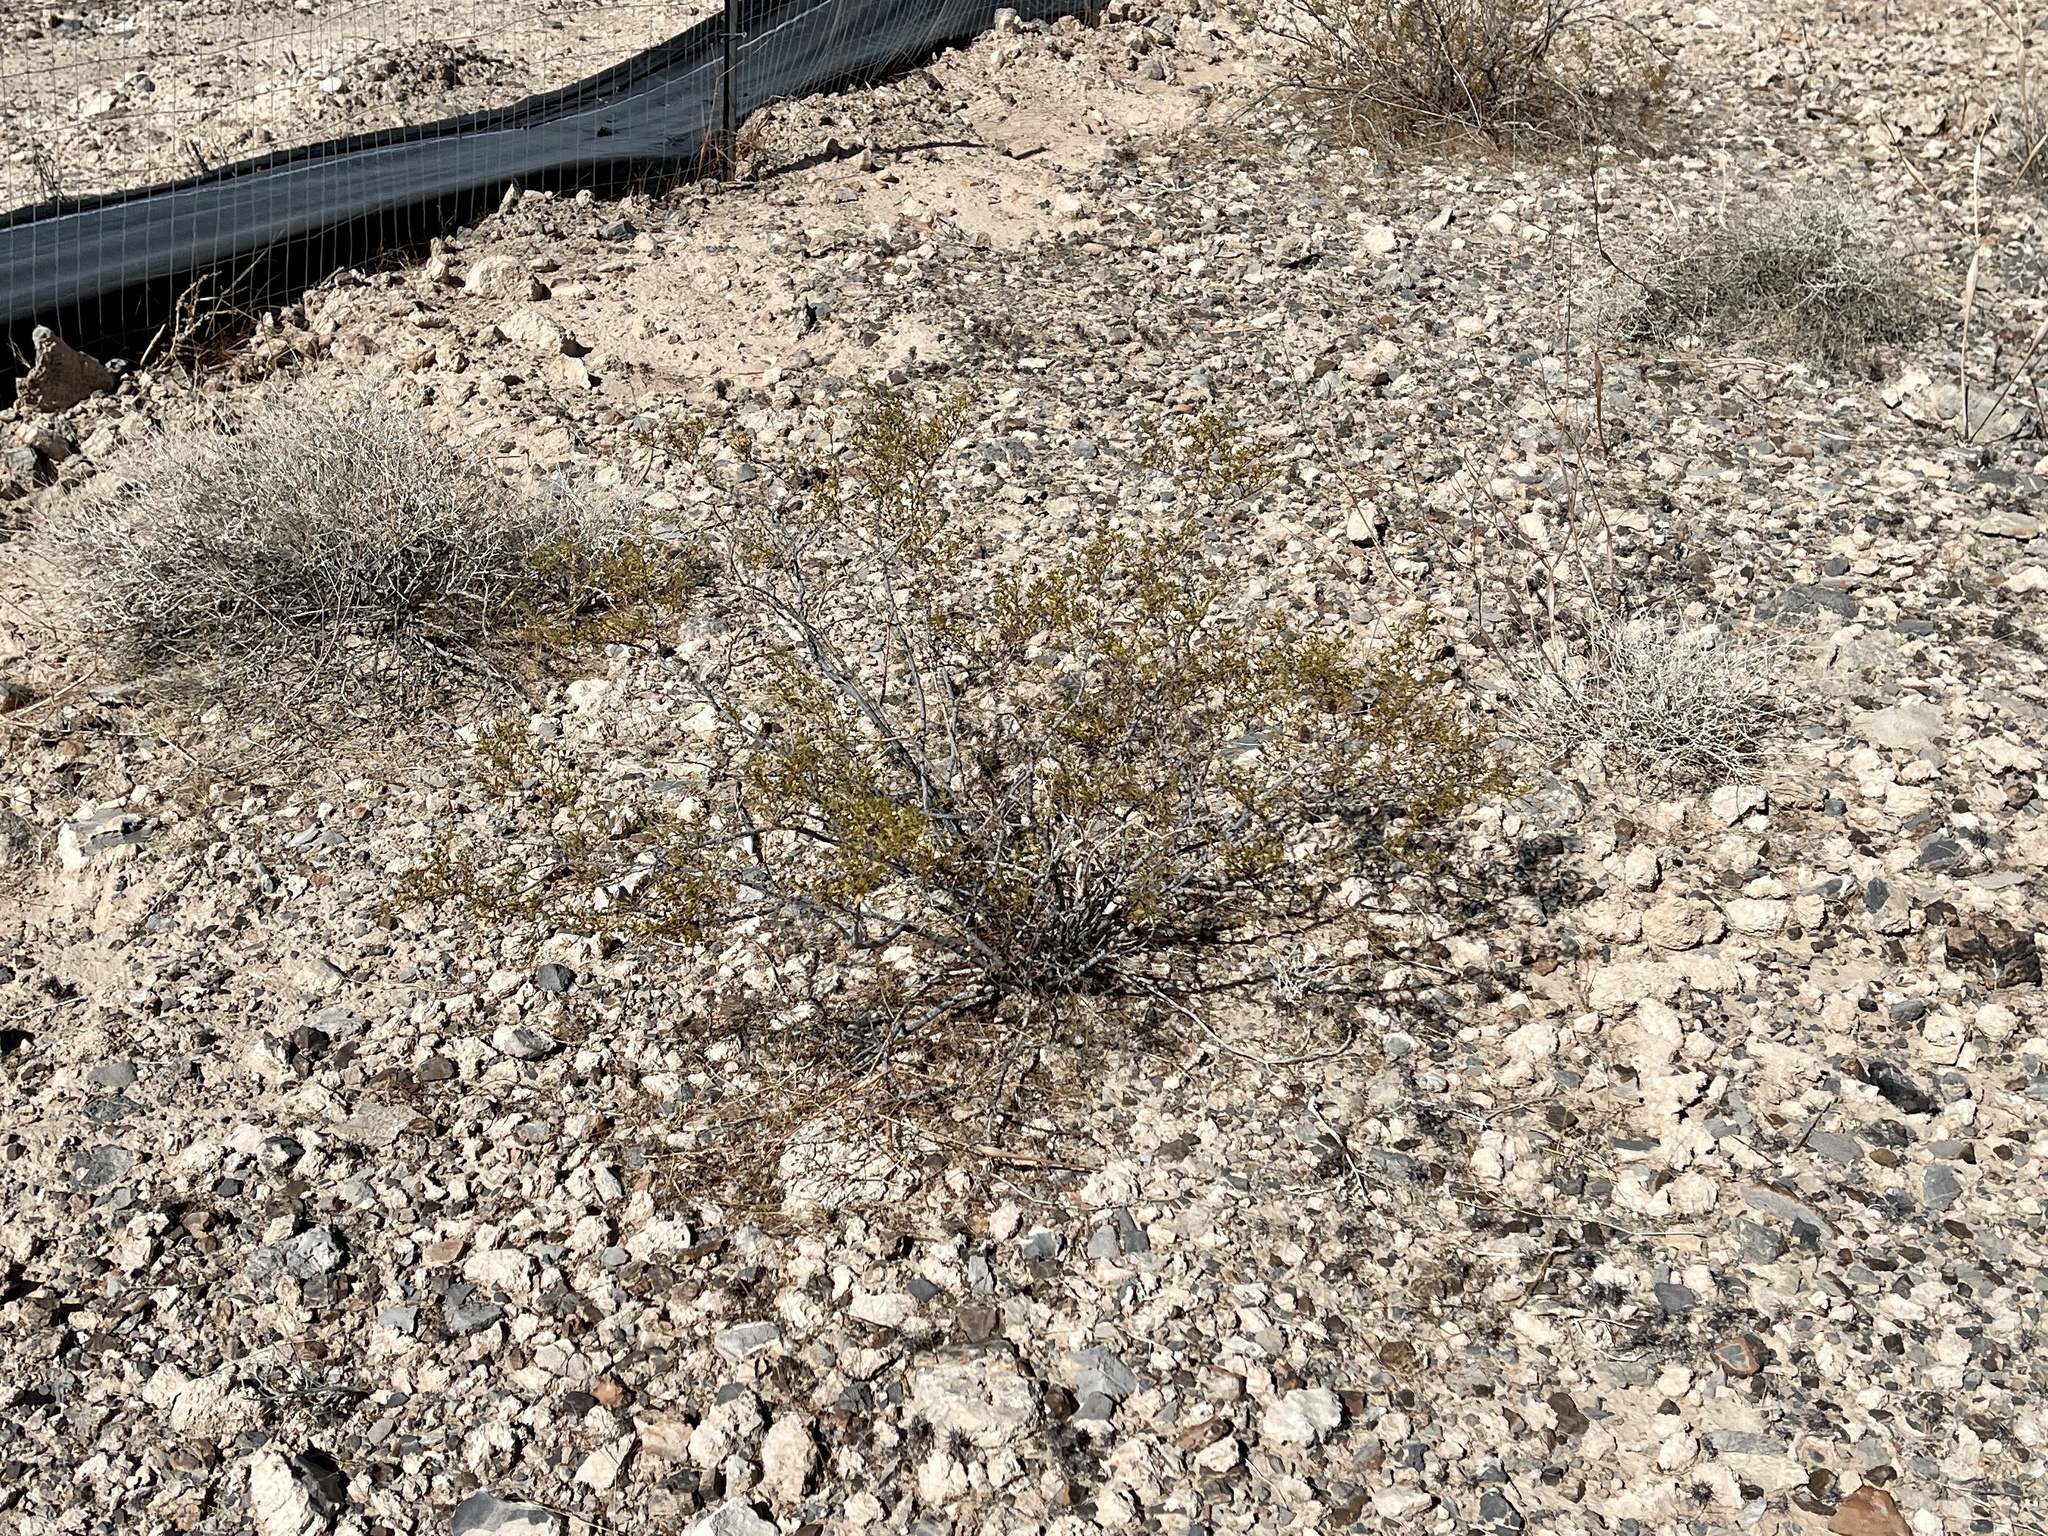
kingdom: Plantae
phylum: Tracheophyta
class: Magnoliopsida
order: Zygophyllales
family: Zygophyllaceae
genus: Larrea
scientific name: Larrea tridentata
